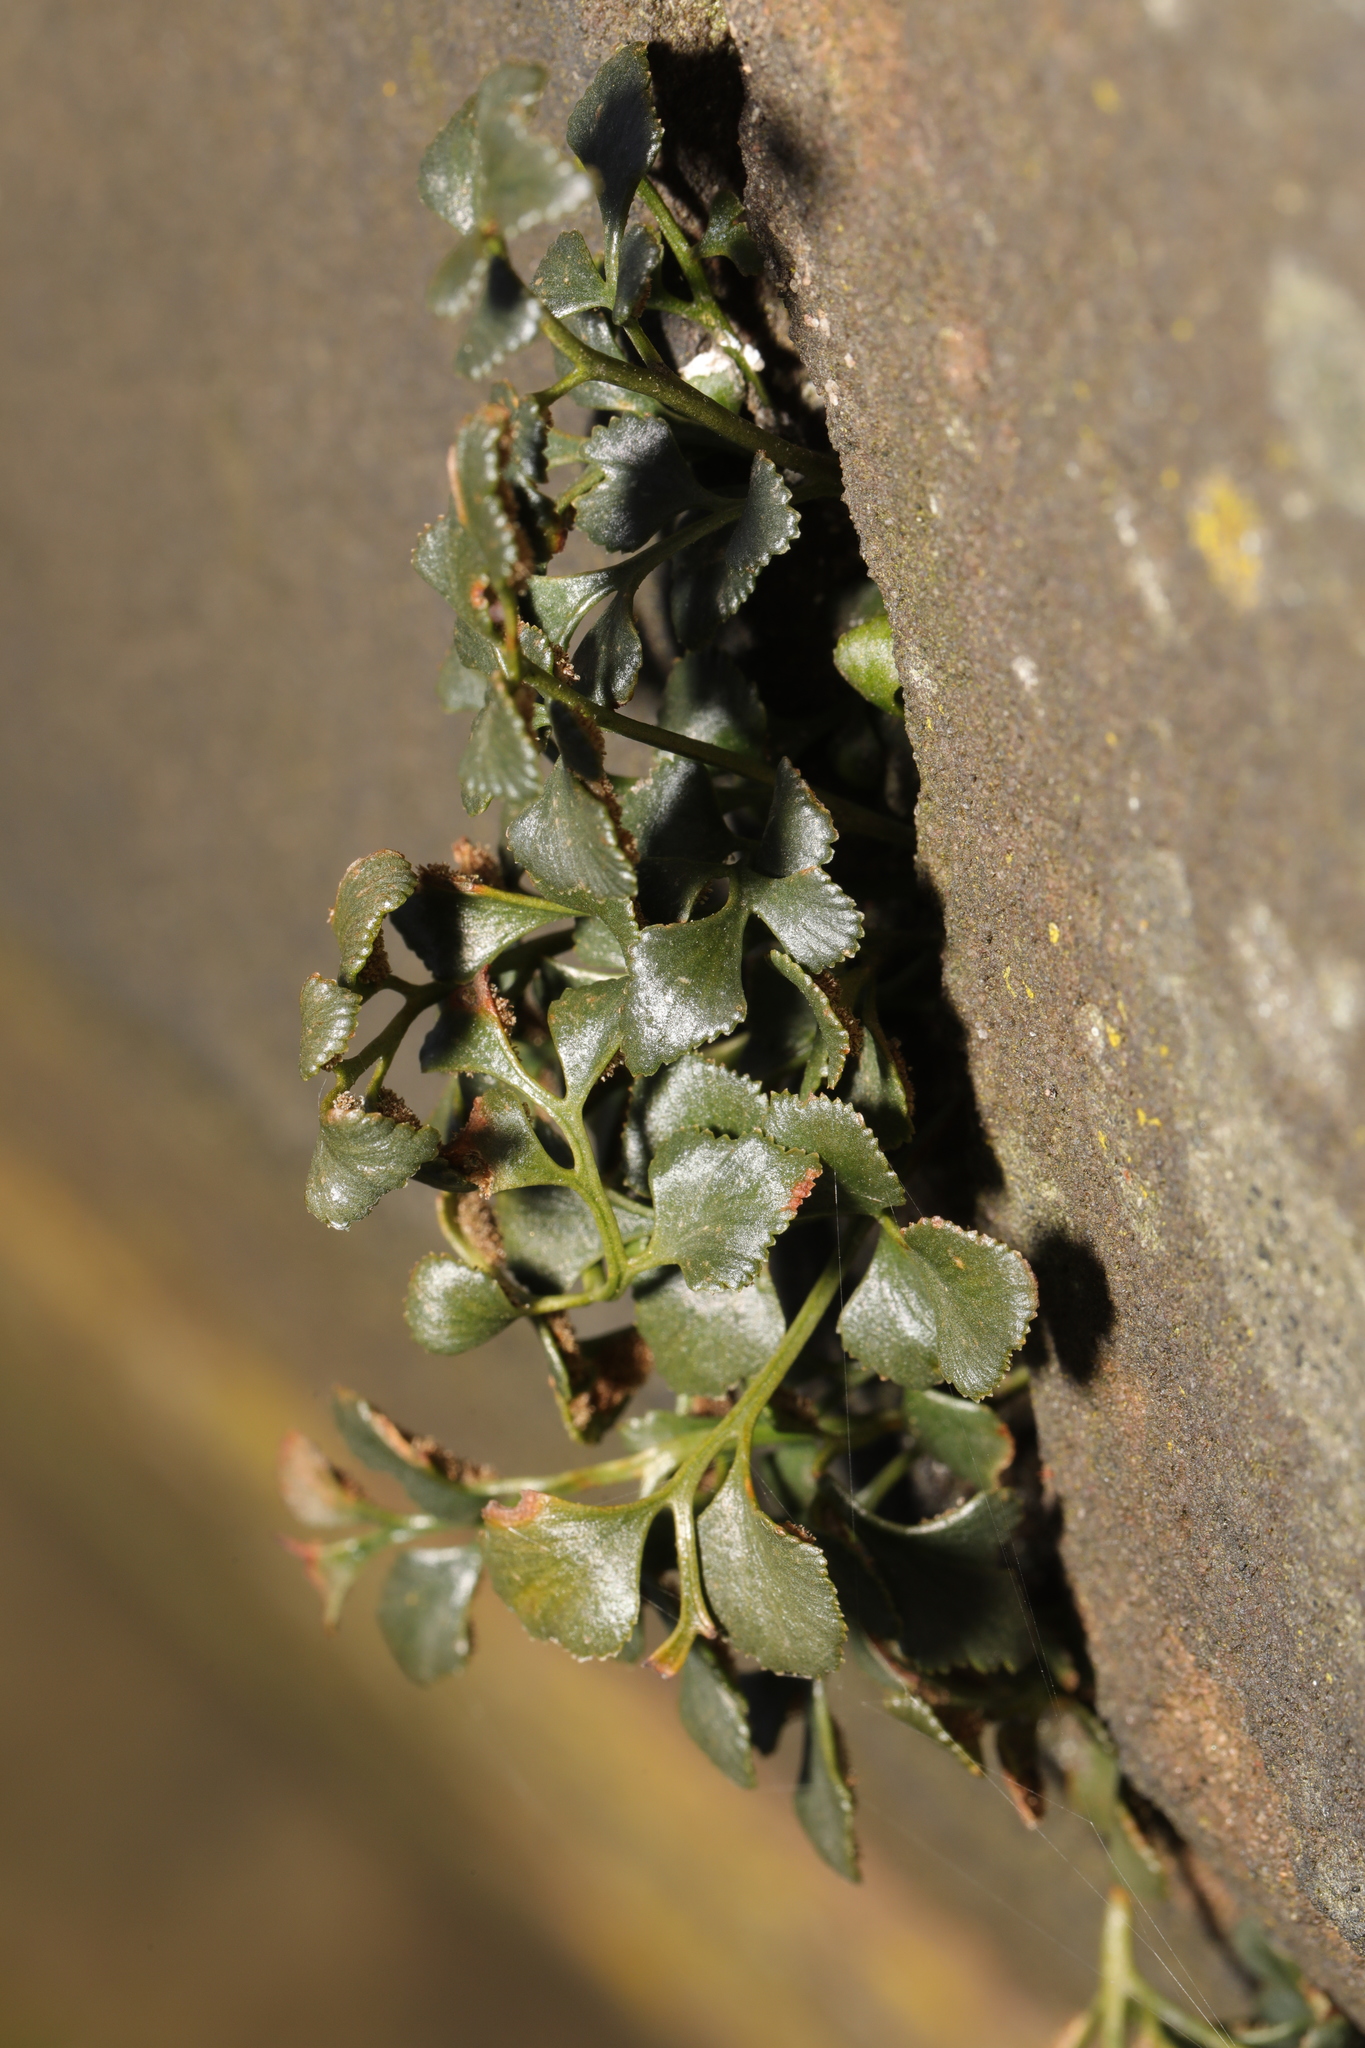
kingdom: Plantae
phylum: Tracheophyta
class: Polypodiopsida
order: Polypodiales
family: Aspleniaceae
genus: Asplenium
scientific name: Asplenium ruta-muraria
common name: Wall-rue
